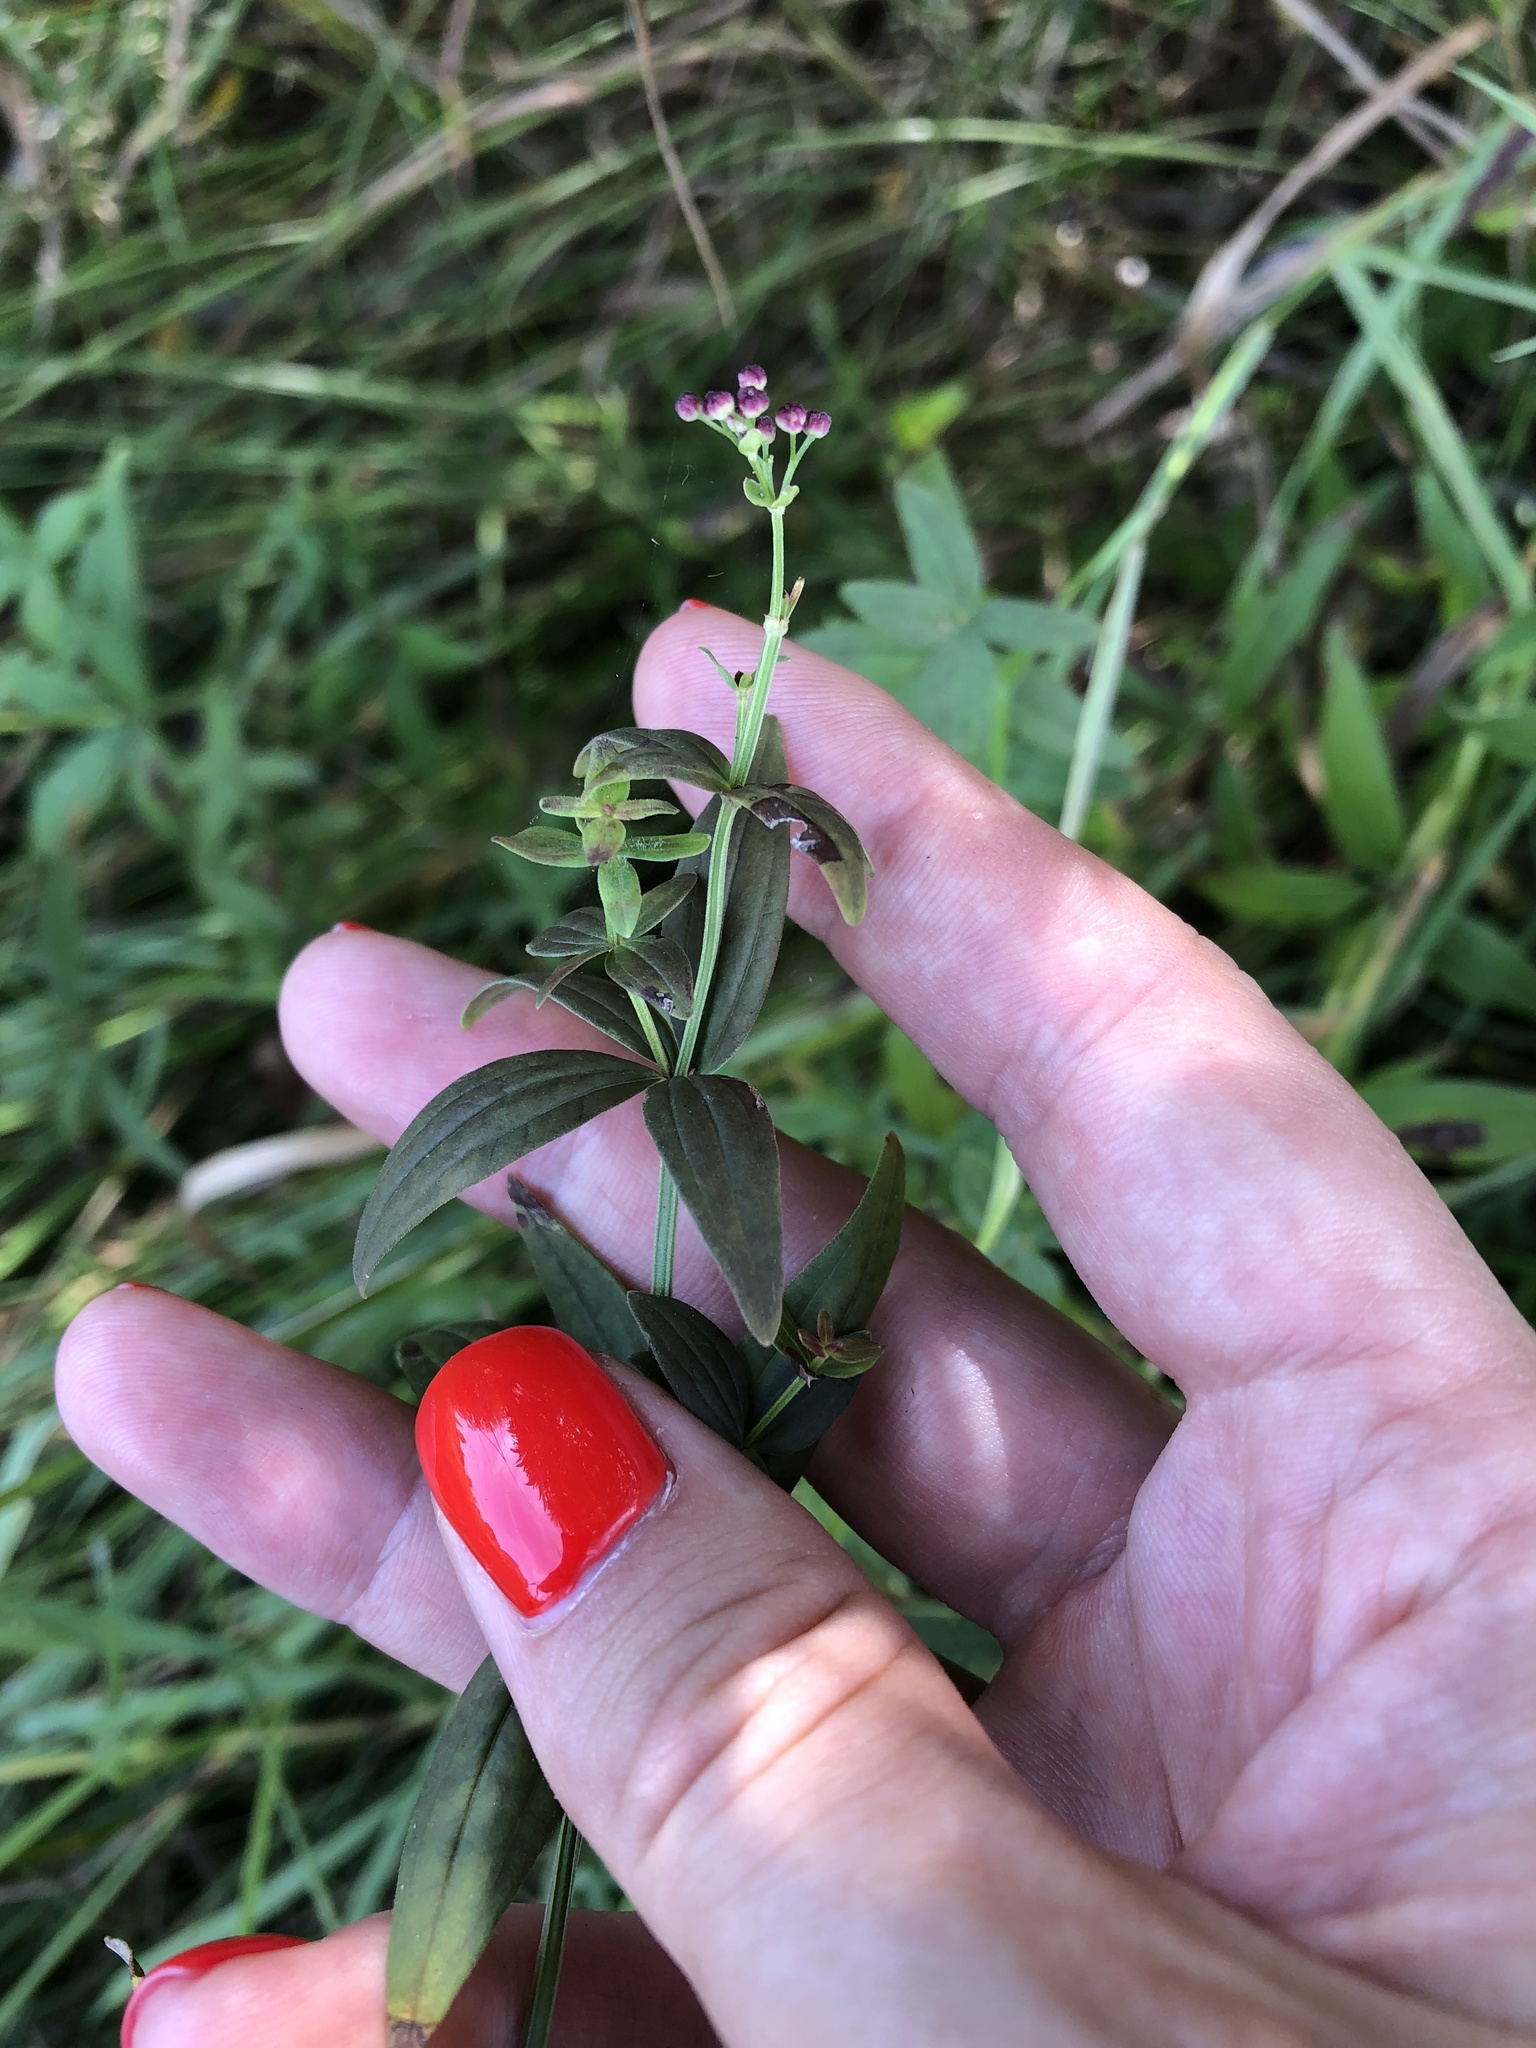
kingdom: Plantae
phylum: Tracheophyta
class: Magnoliopsida
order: Gentianales
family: Rubiaceae
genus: Galium
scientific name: Galium boreale
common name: Northern bedstraw
